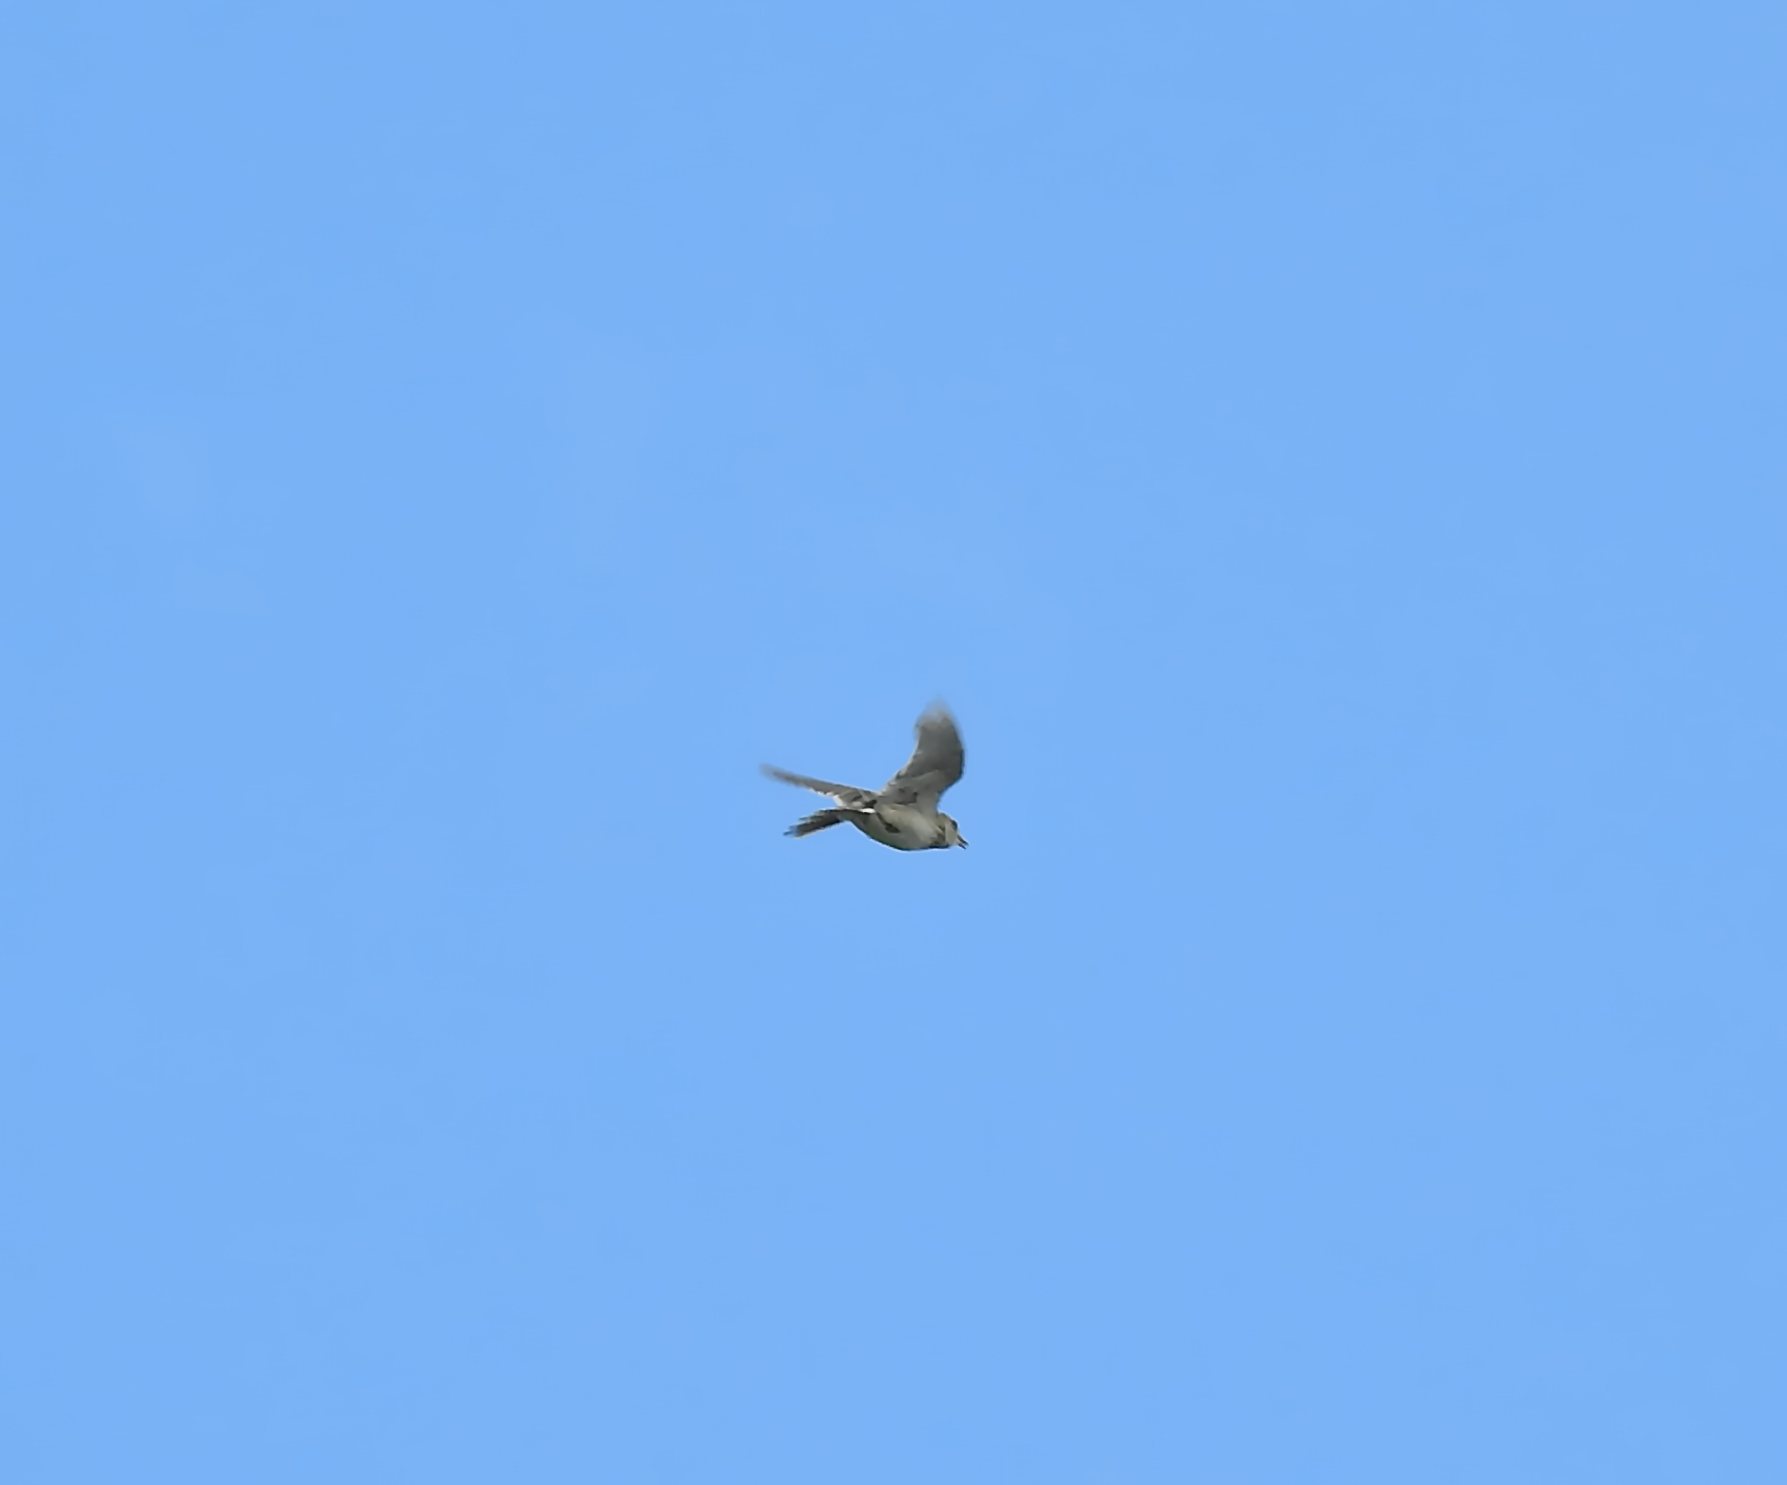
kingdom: Animalia
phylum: Chordata
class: Aves
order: Passeriformes
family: Alaudidae
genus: Alauda
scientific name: Alauda arvensis
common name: Eurasian skylark
